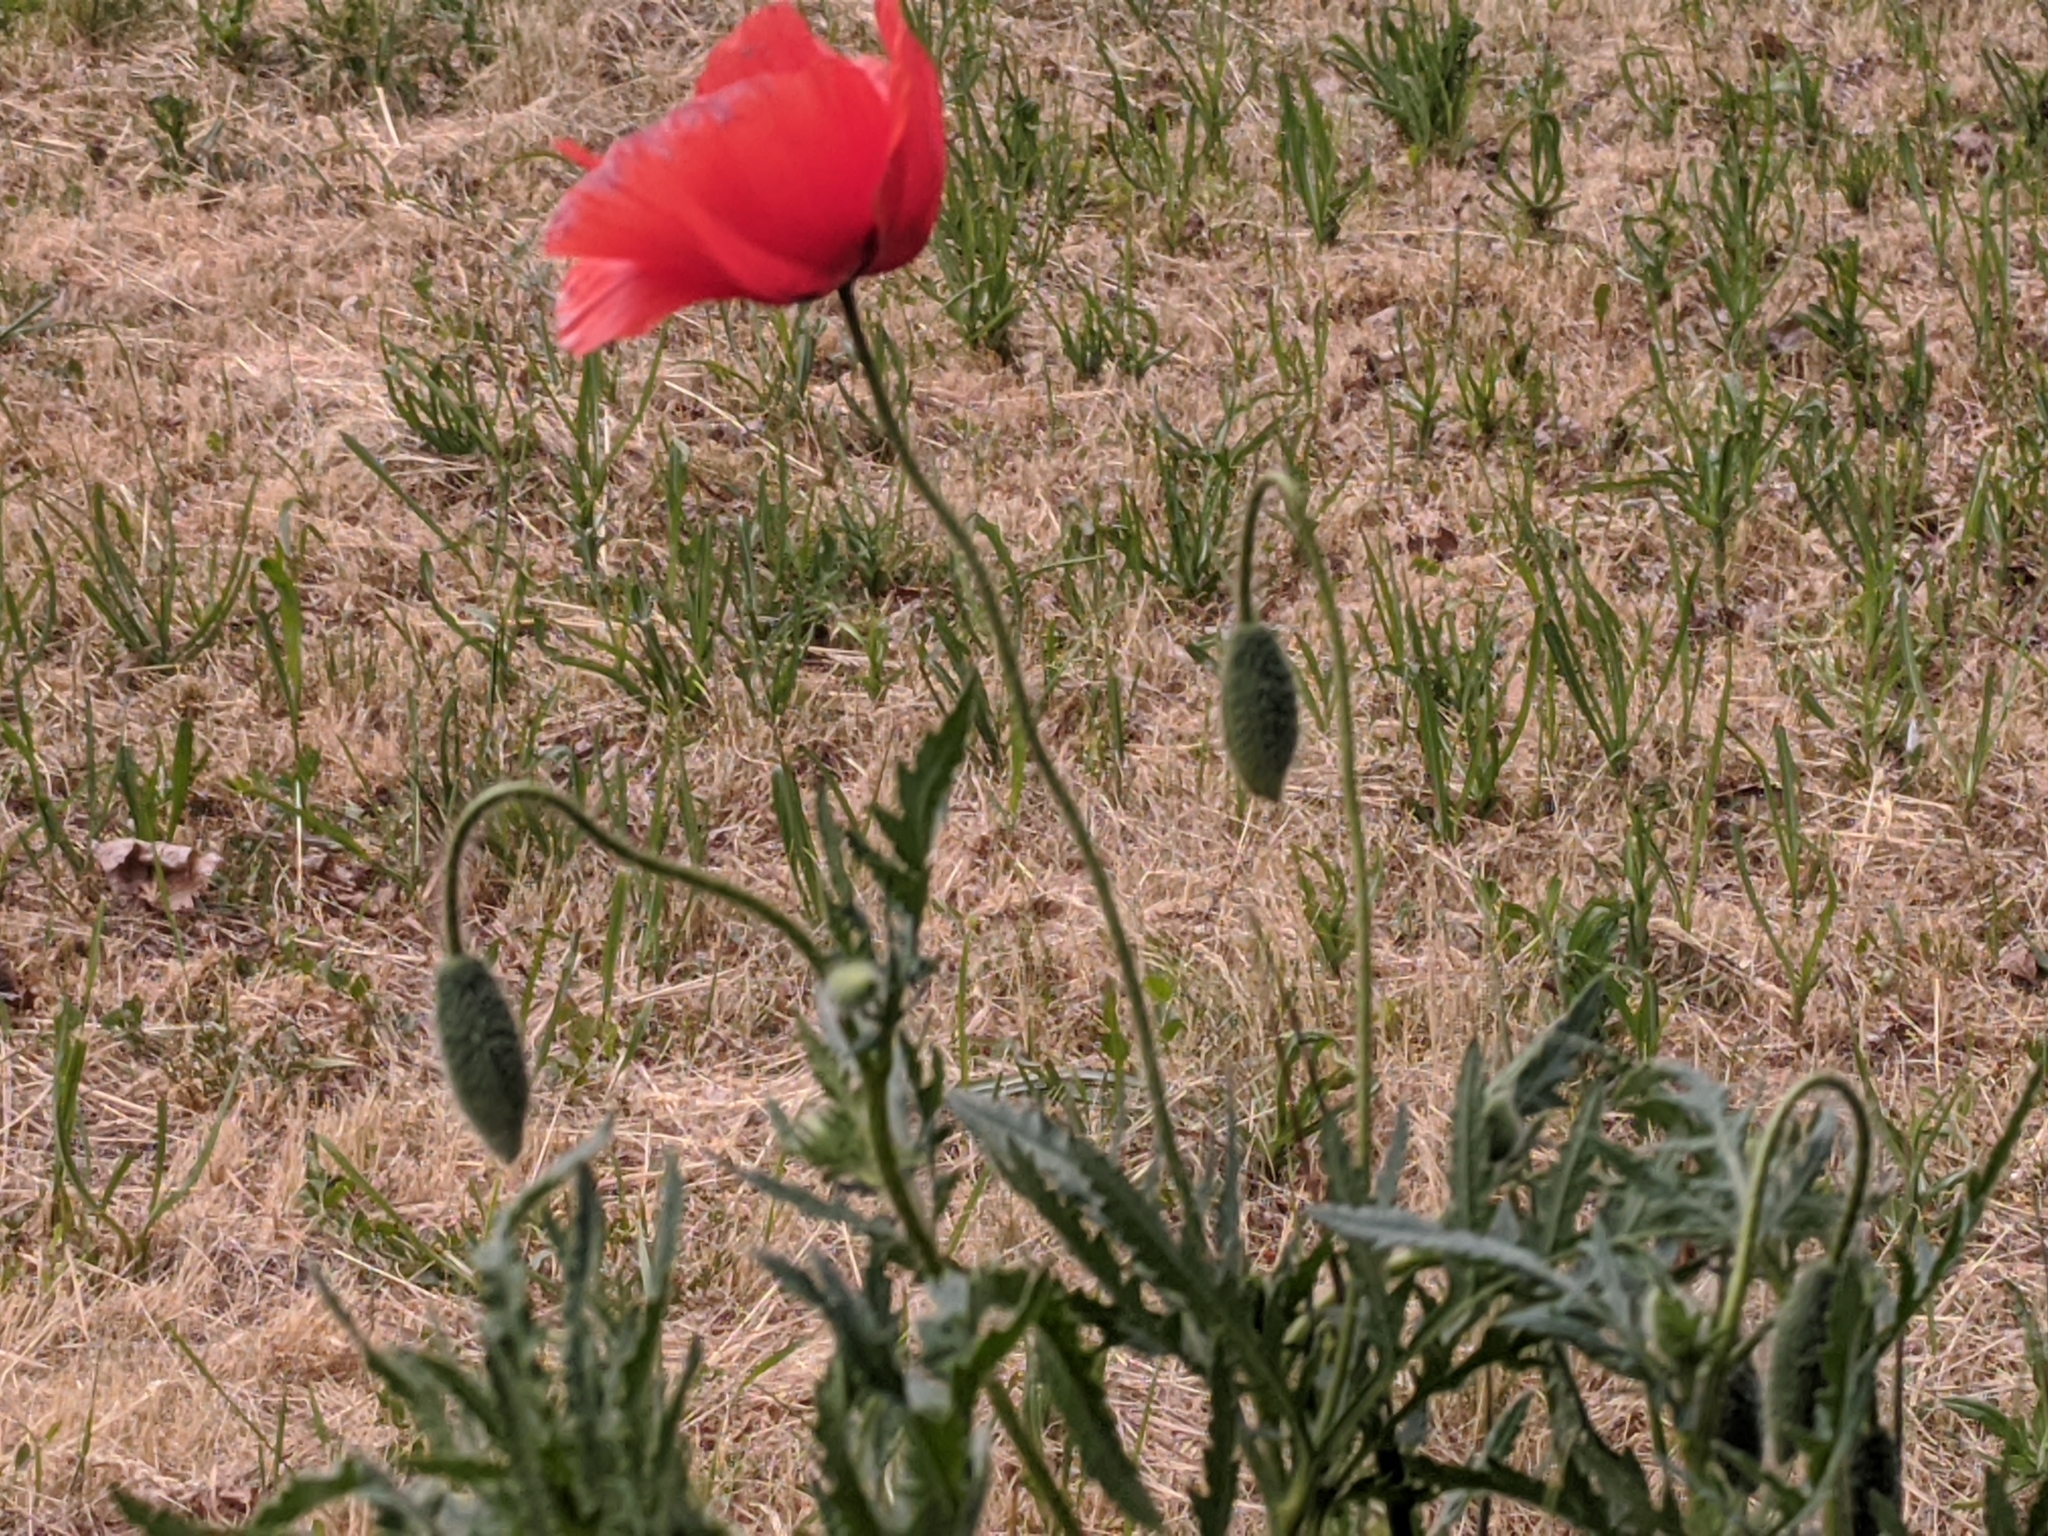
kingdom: Plantae
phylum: Tracheophyta
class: Magnoliopsida
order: Ranunculales
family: Papaveraceae
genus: Papaver
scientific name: Papaver rhoeas
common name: Corn poppy
